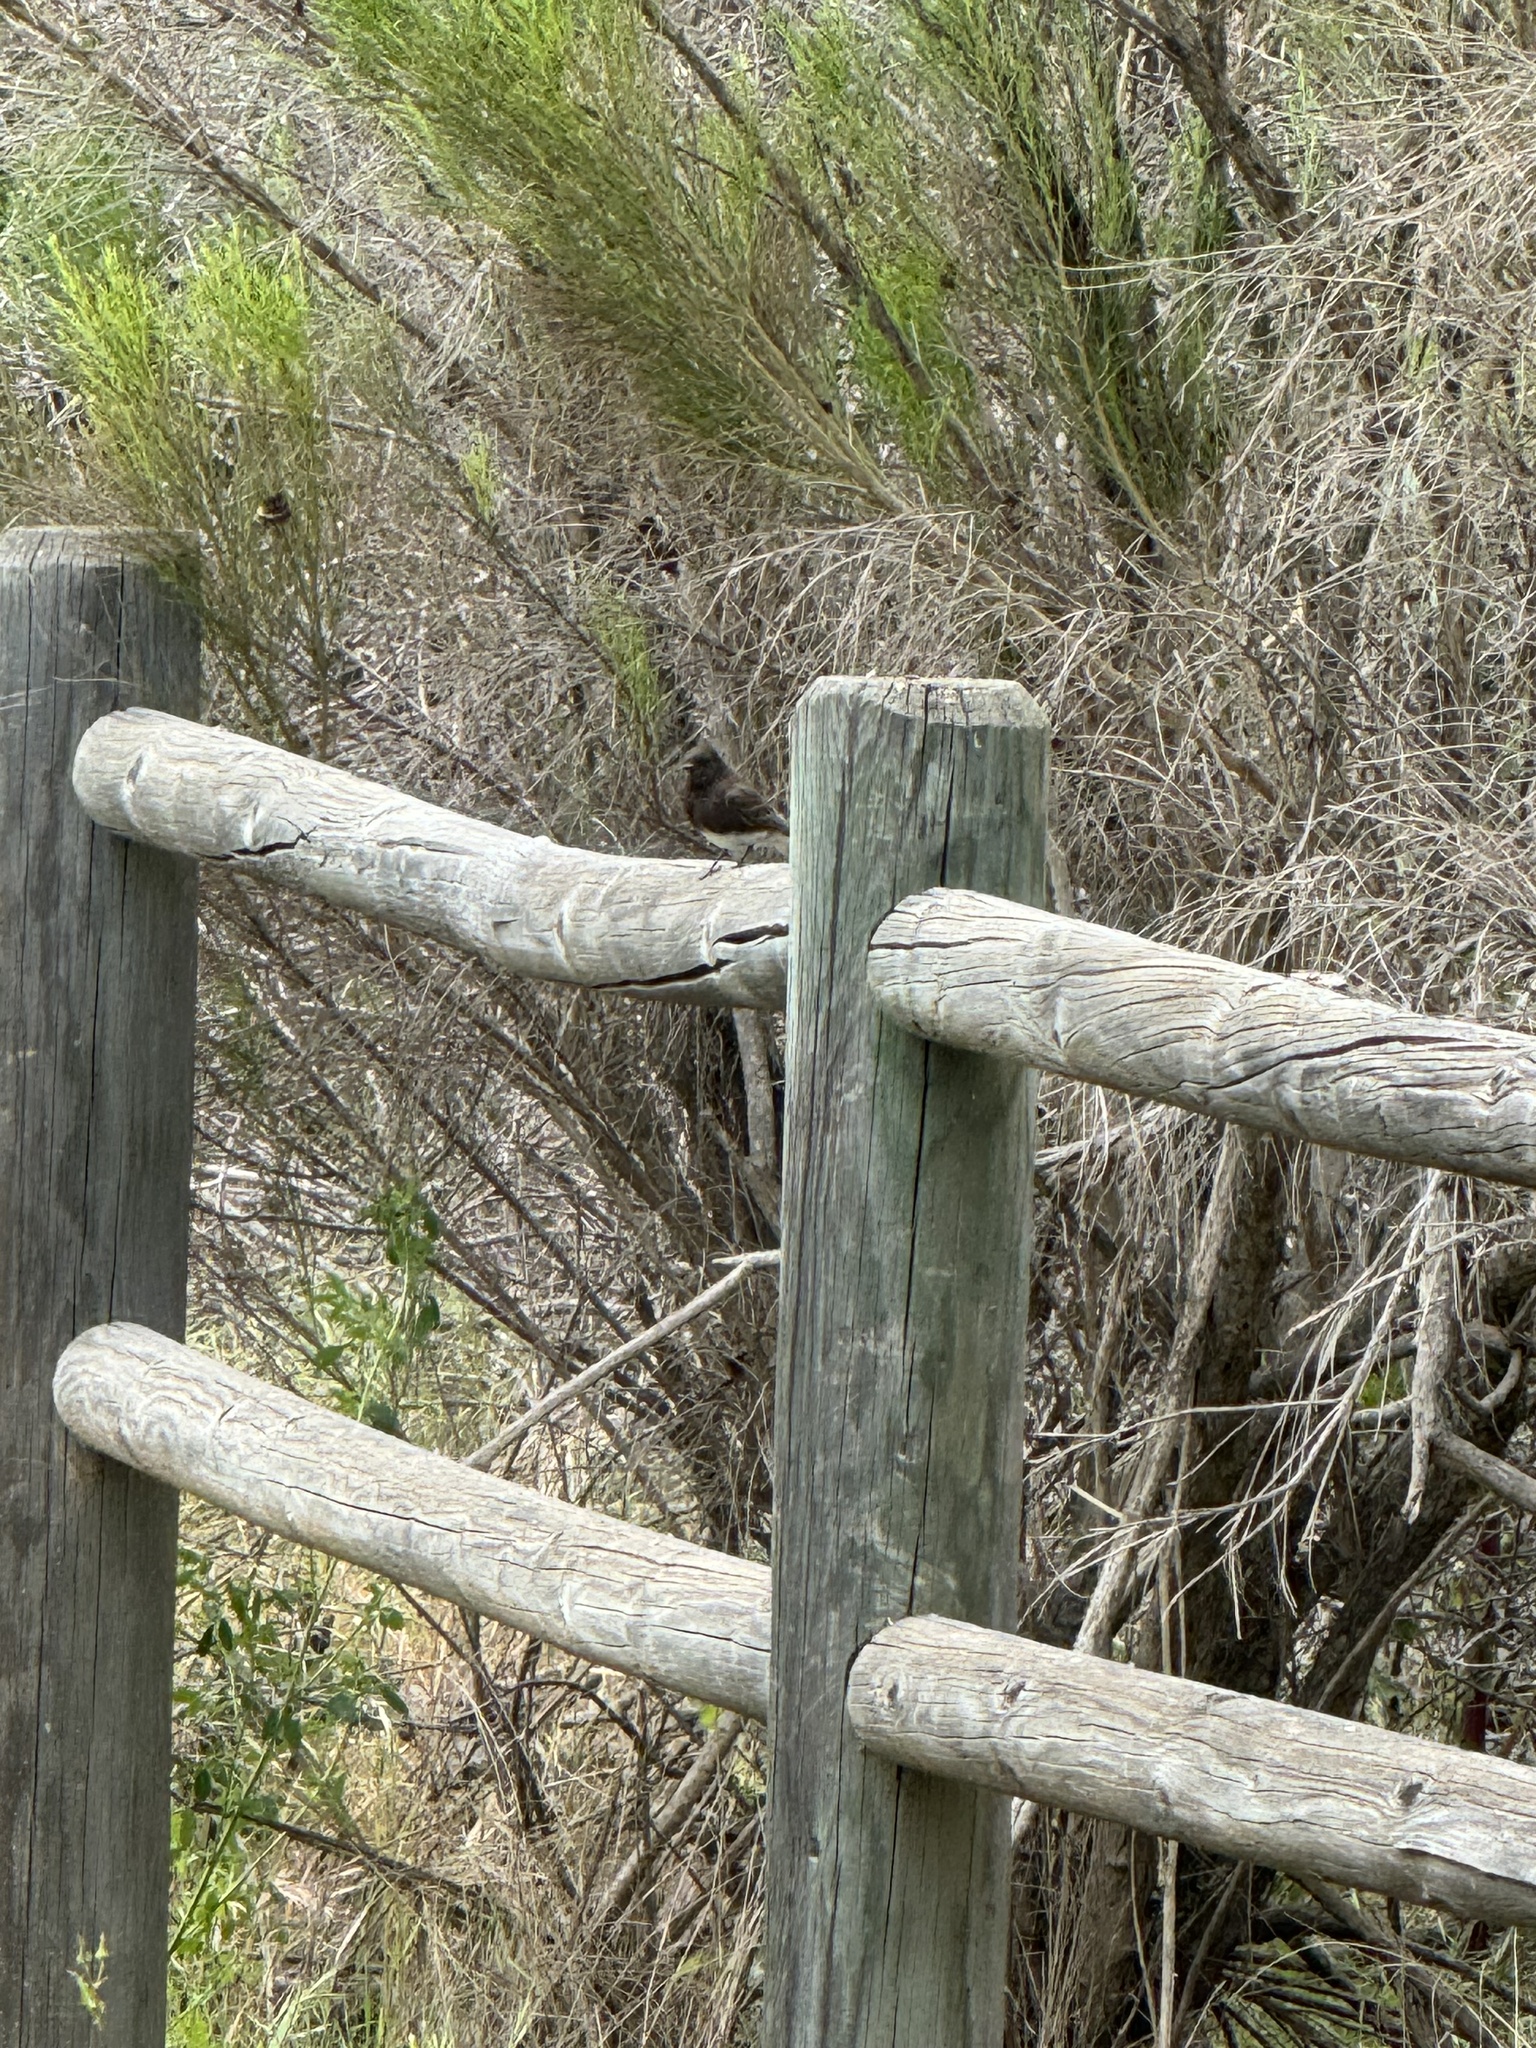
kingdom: Animalia
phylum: Chordata
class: Aves
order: Passeriformes
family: Tyrannidae
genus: Sayornis
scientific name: Sayornis nigricans
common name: Black phoebe
